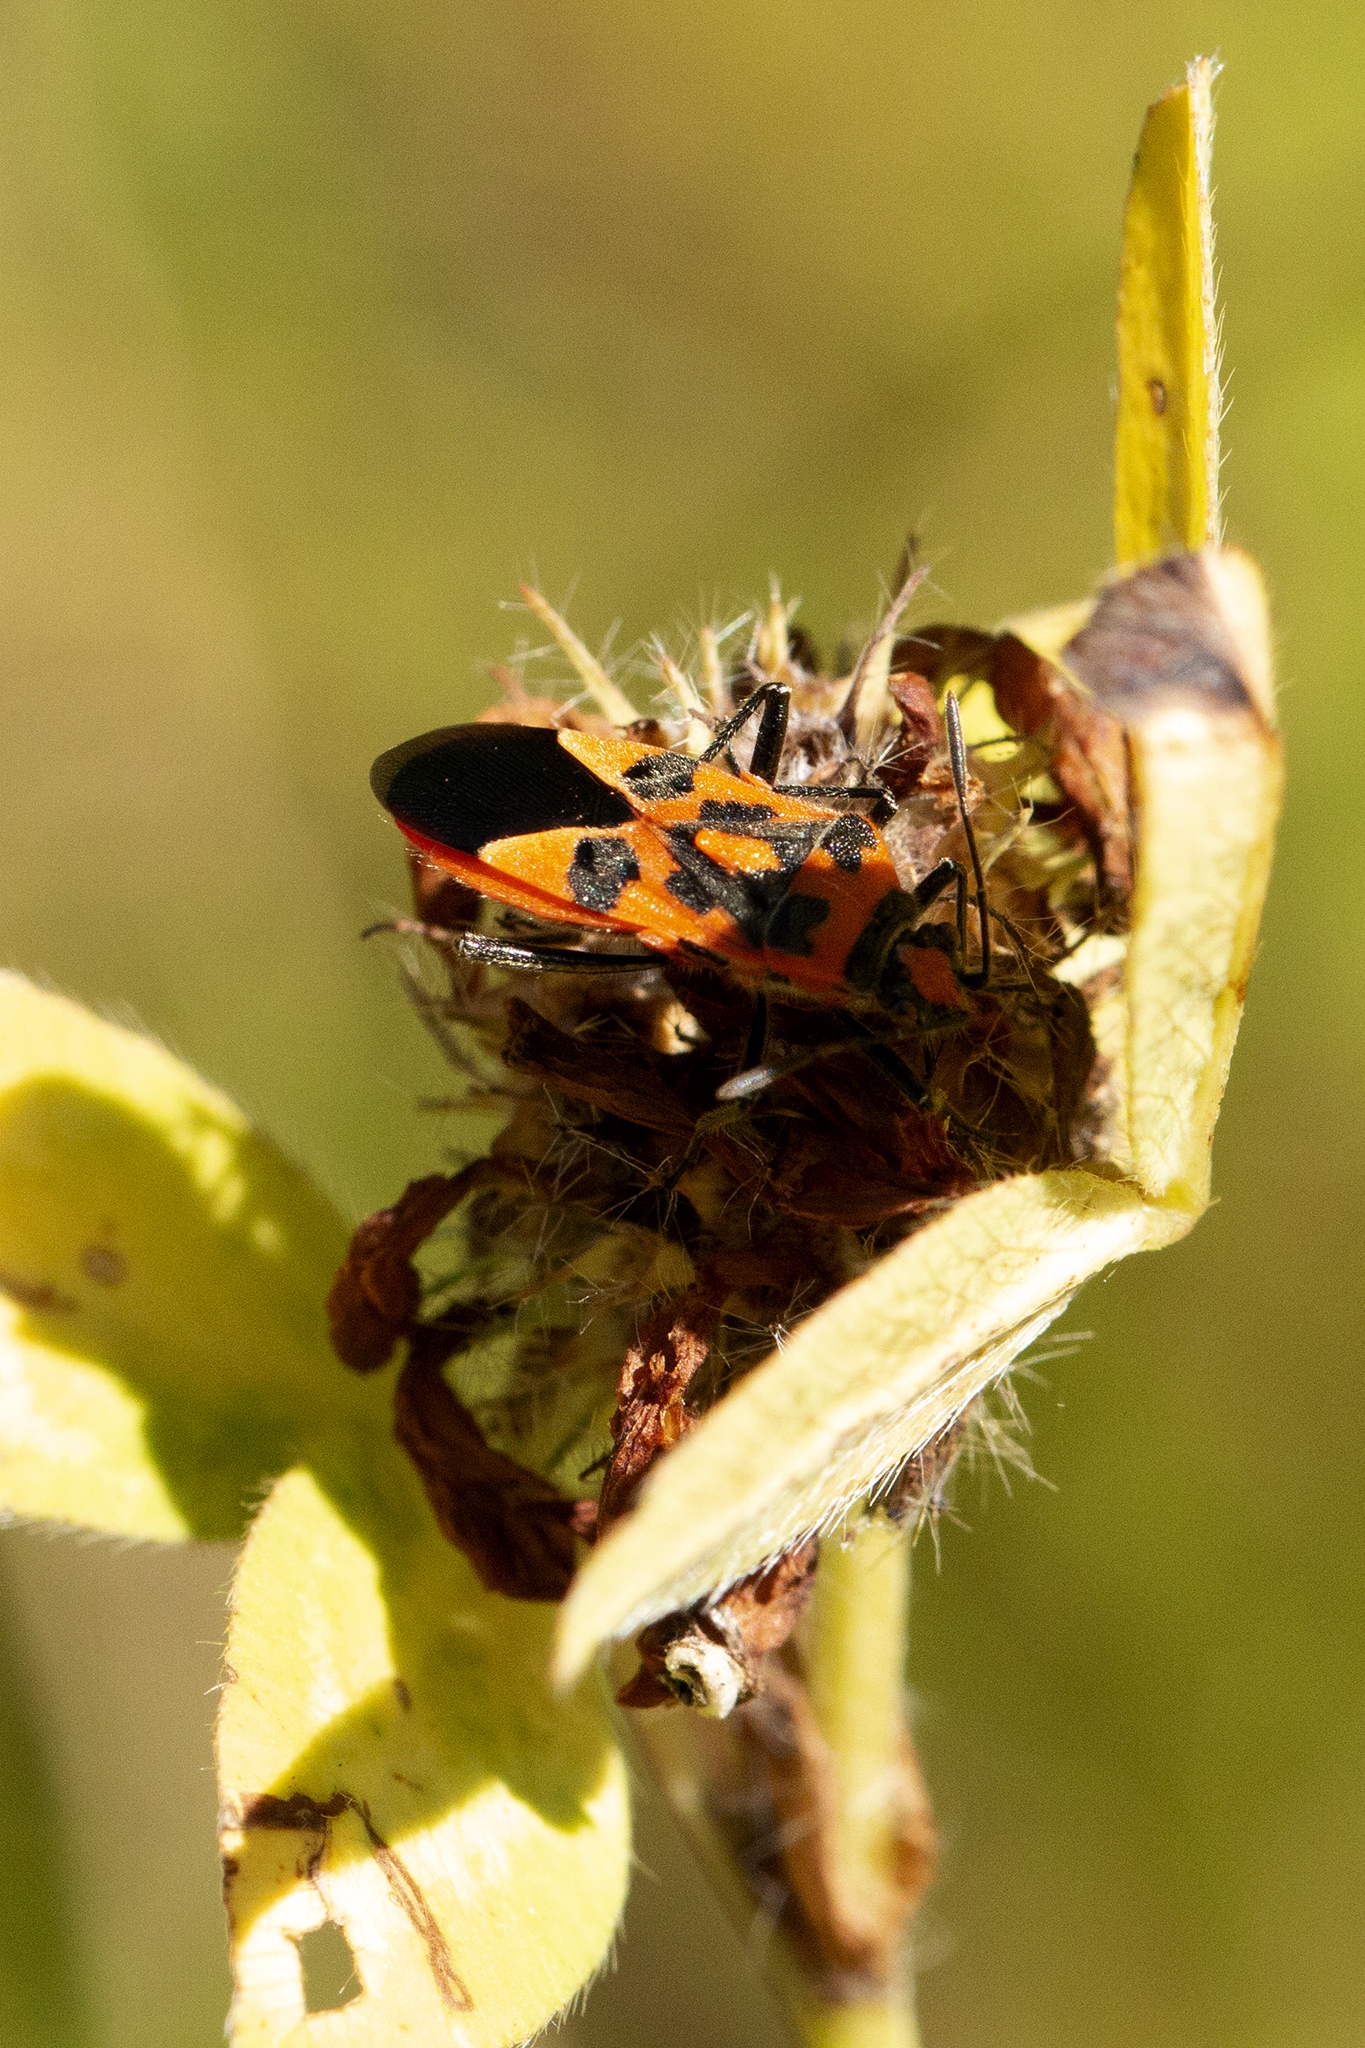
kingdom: Animalia
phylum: Arthropoda
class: Insecta
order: Hemiptera
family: Rhopalidae
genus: Corizus
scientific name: Corizus hyoscyami
